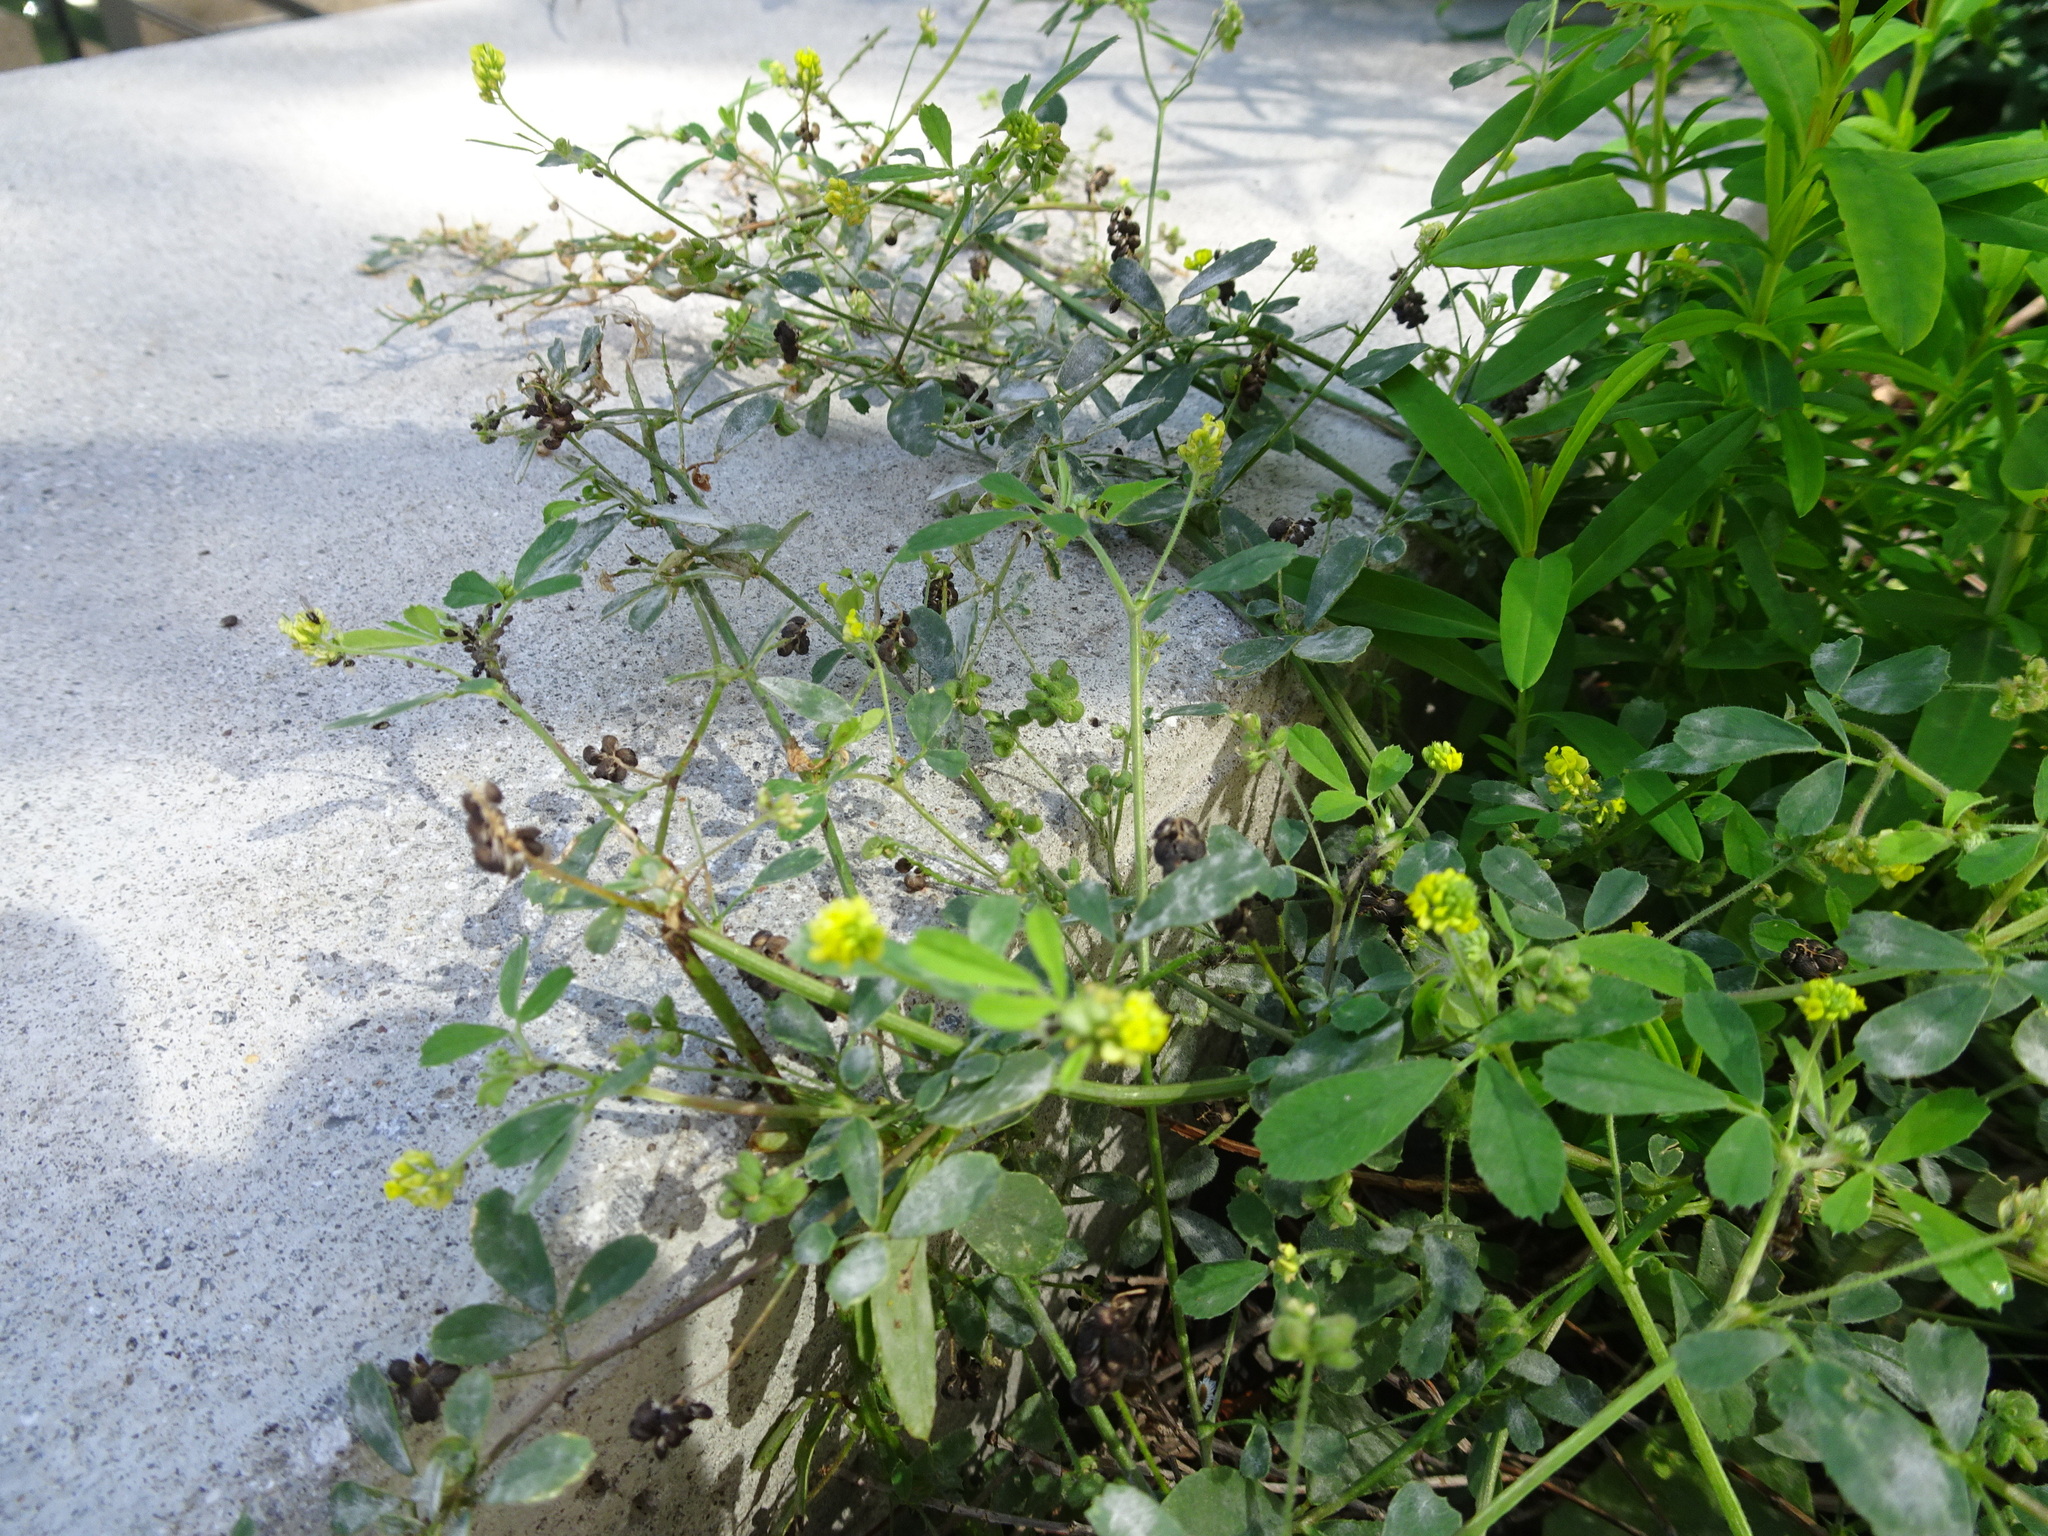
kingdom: Plantae
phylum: Tracheophyta
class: Magnoliopsida
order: Fabales
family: Fabaceae
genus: Medicago
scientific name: Medicago lupulina
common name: Black medick
